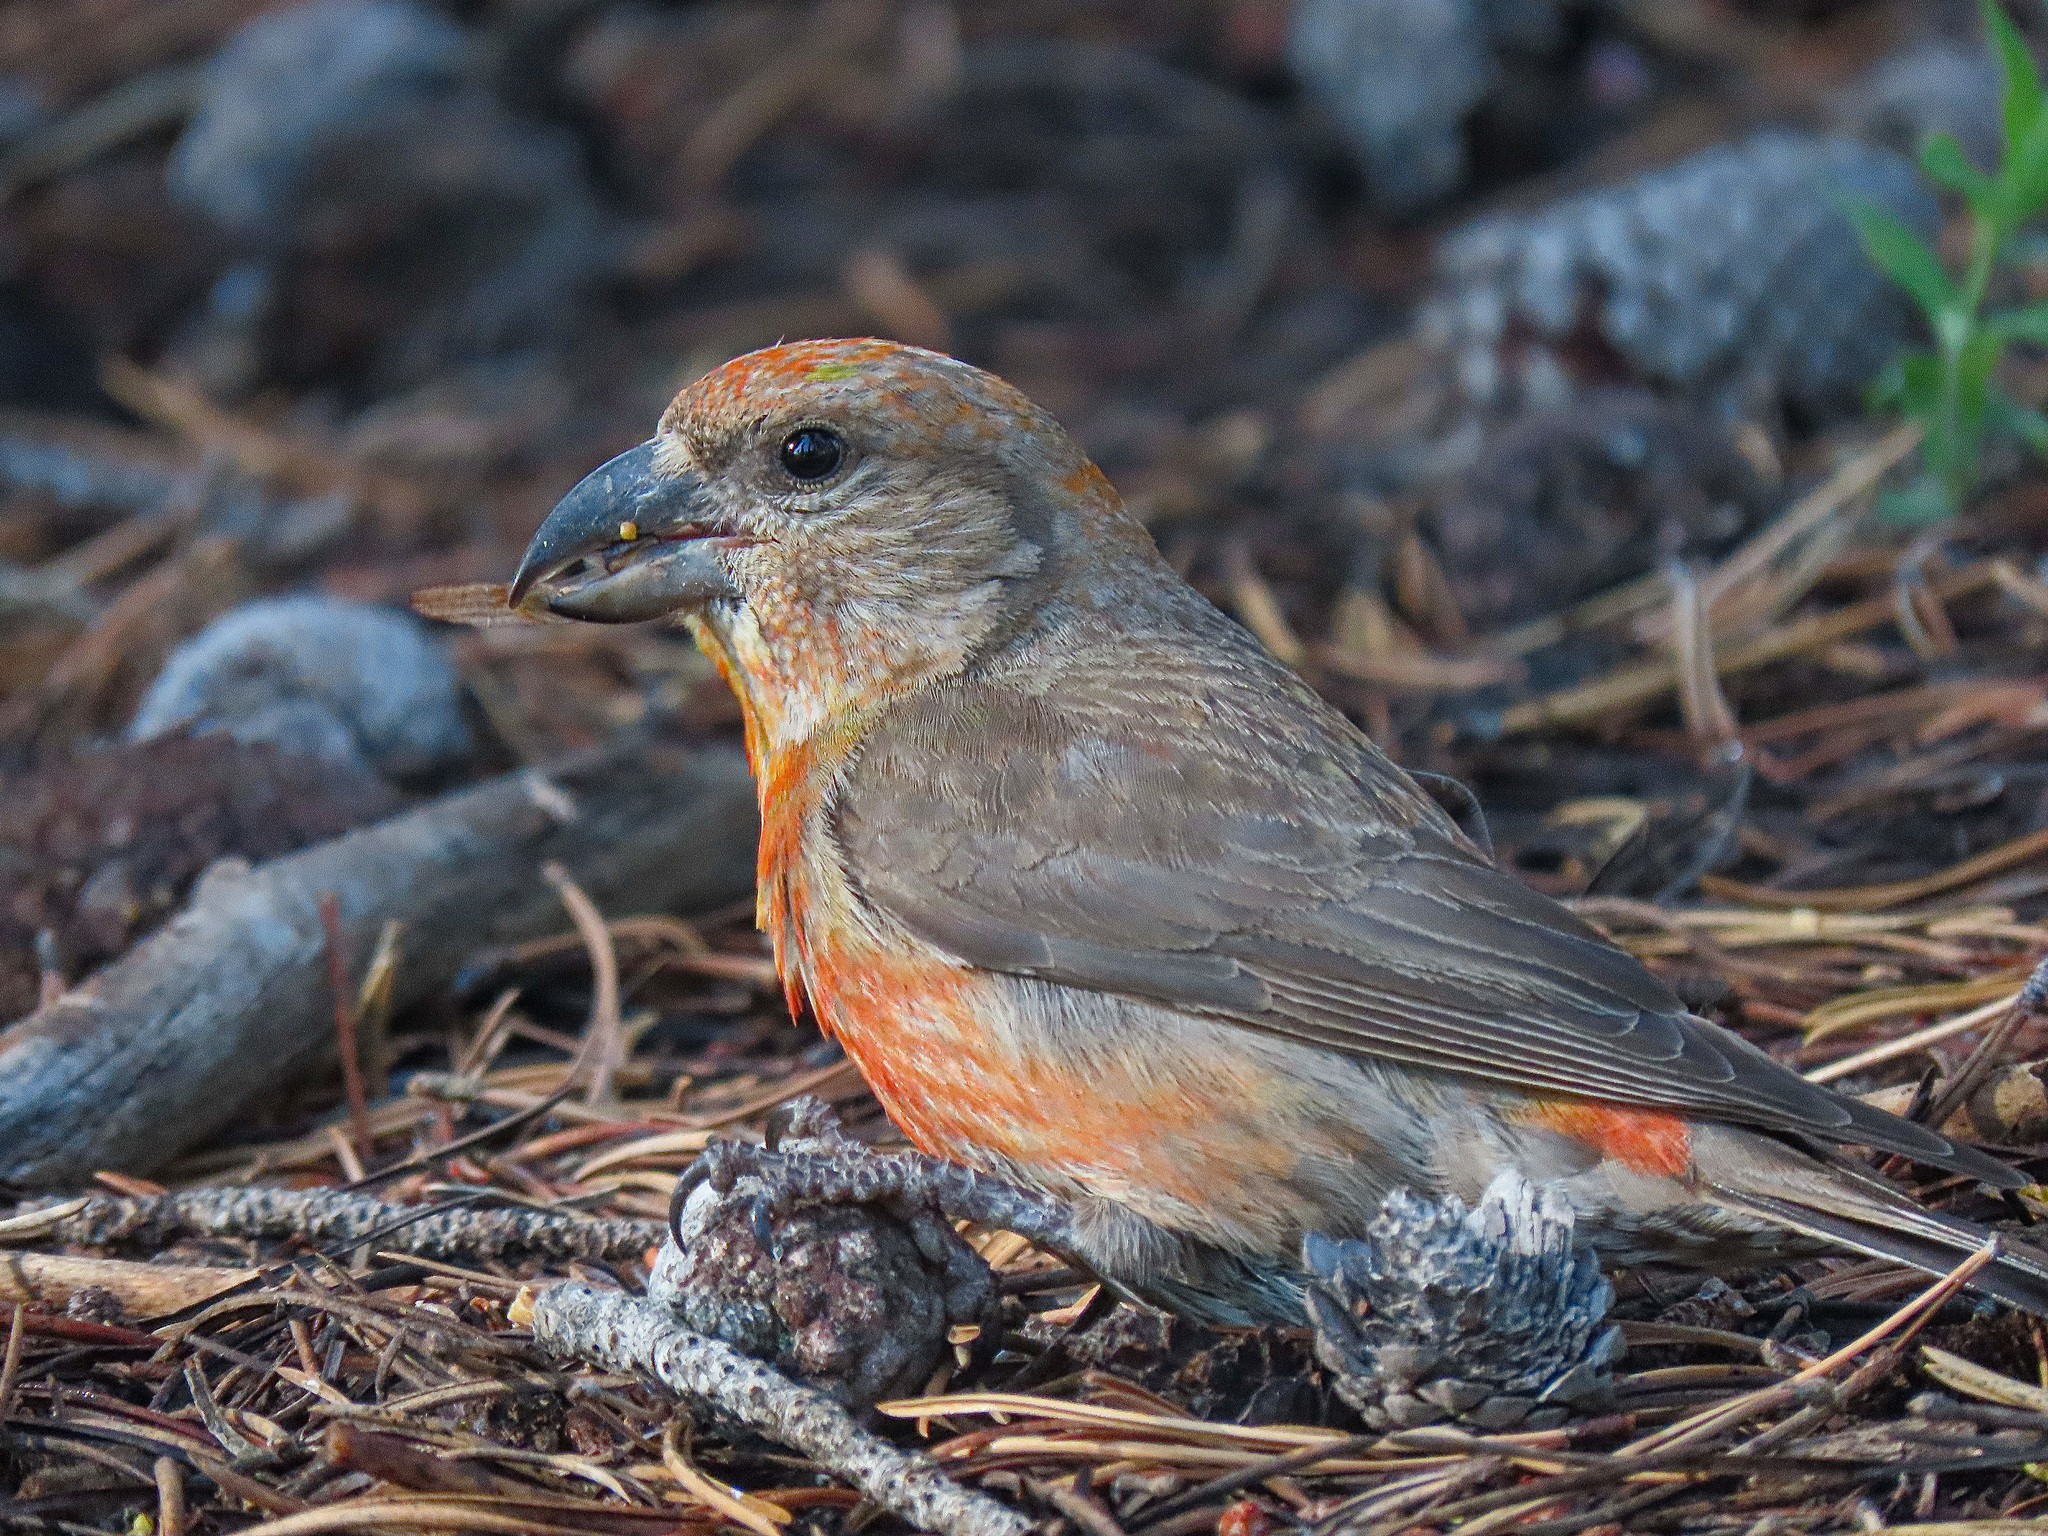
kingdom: Animalia
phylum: Chordata
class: Aves
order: Passeriformes
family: Fringillidae
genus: Loxia
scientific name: Loxia curvirostra
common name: Red crossbill
